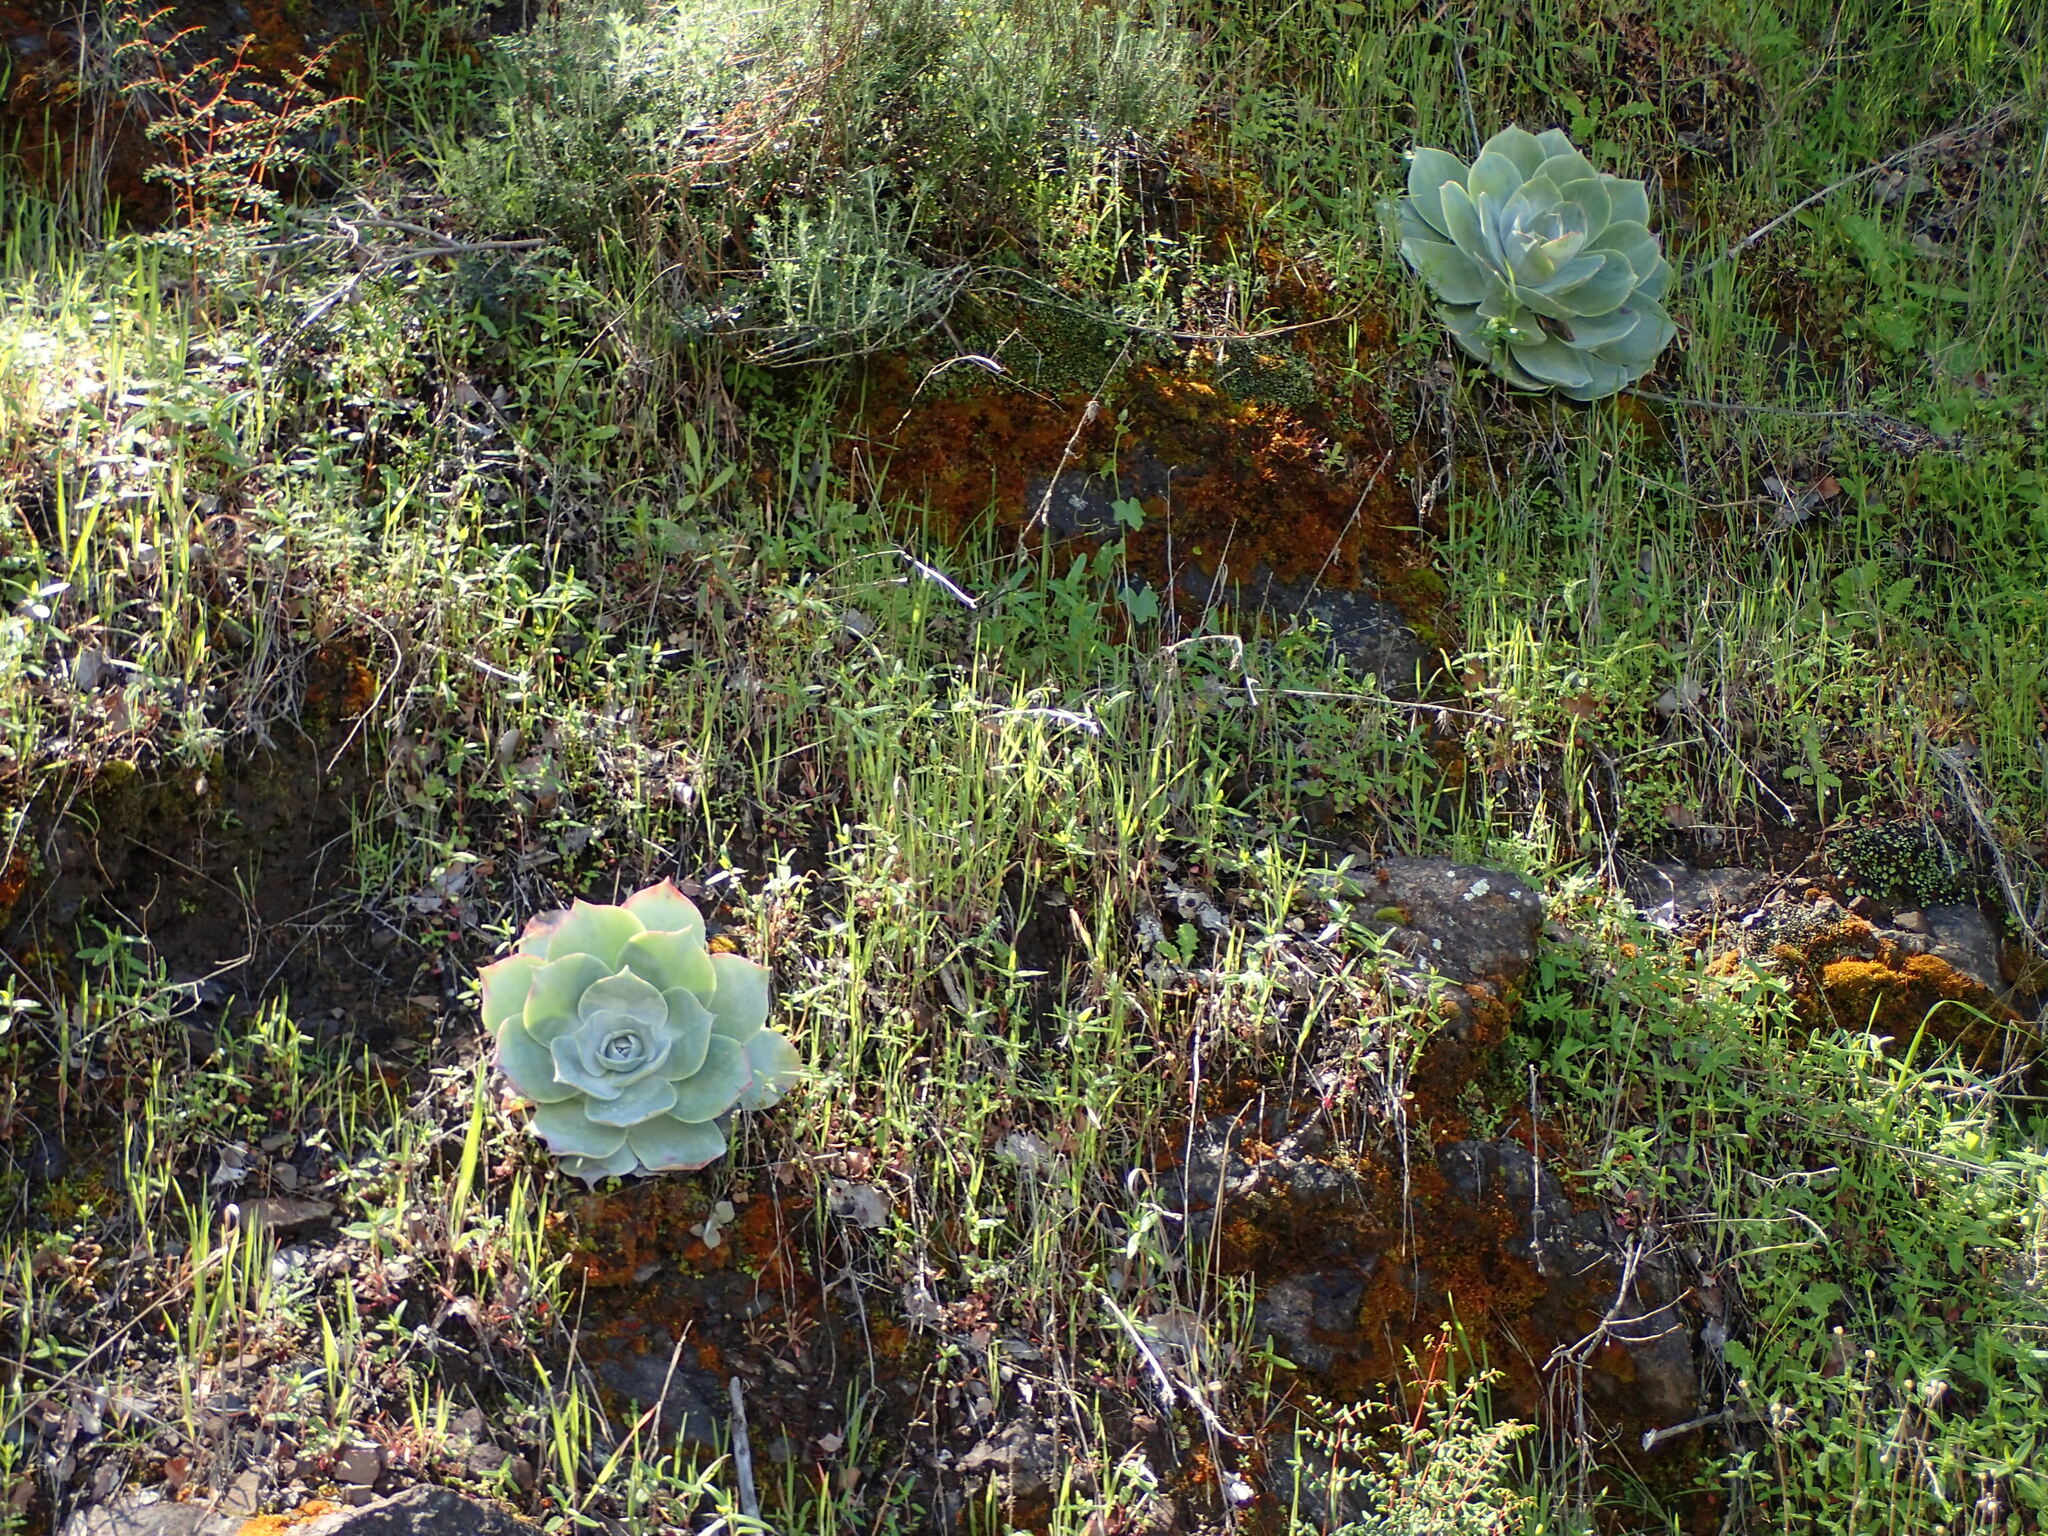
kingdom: Plantae
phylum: Tracheophyta
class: Magnoliopsida
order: Saxifragales
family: Crassulaceae
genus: Dudleya
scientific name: Dudleya pulverulenta
